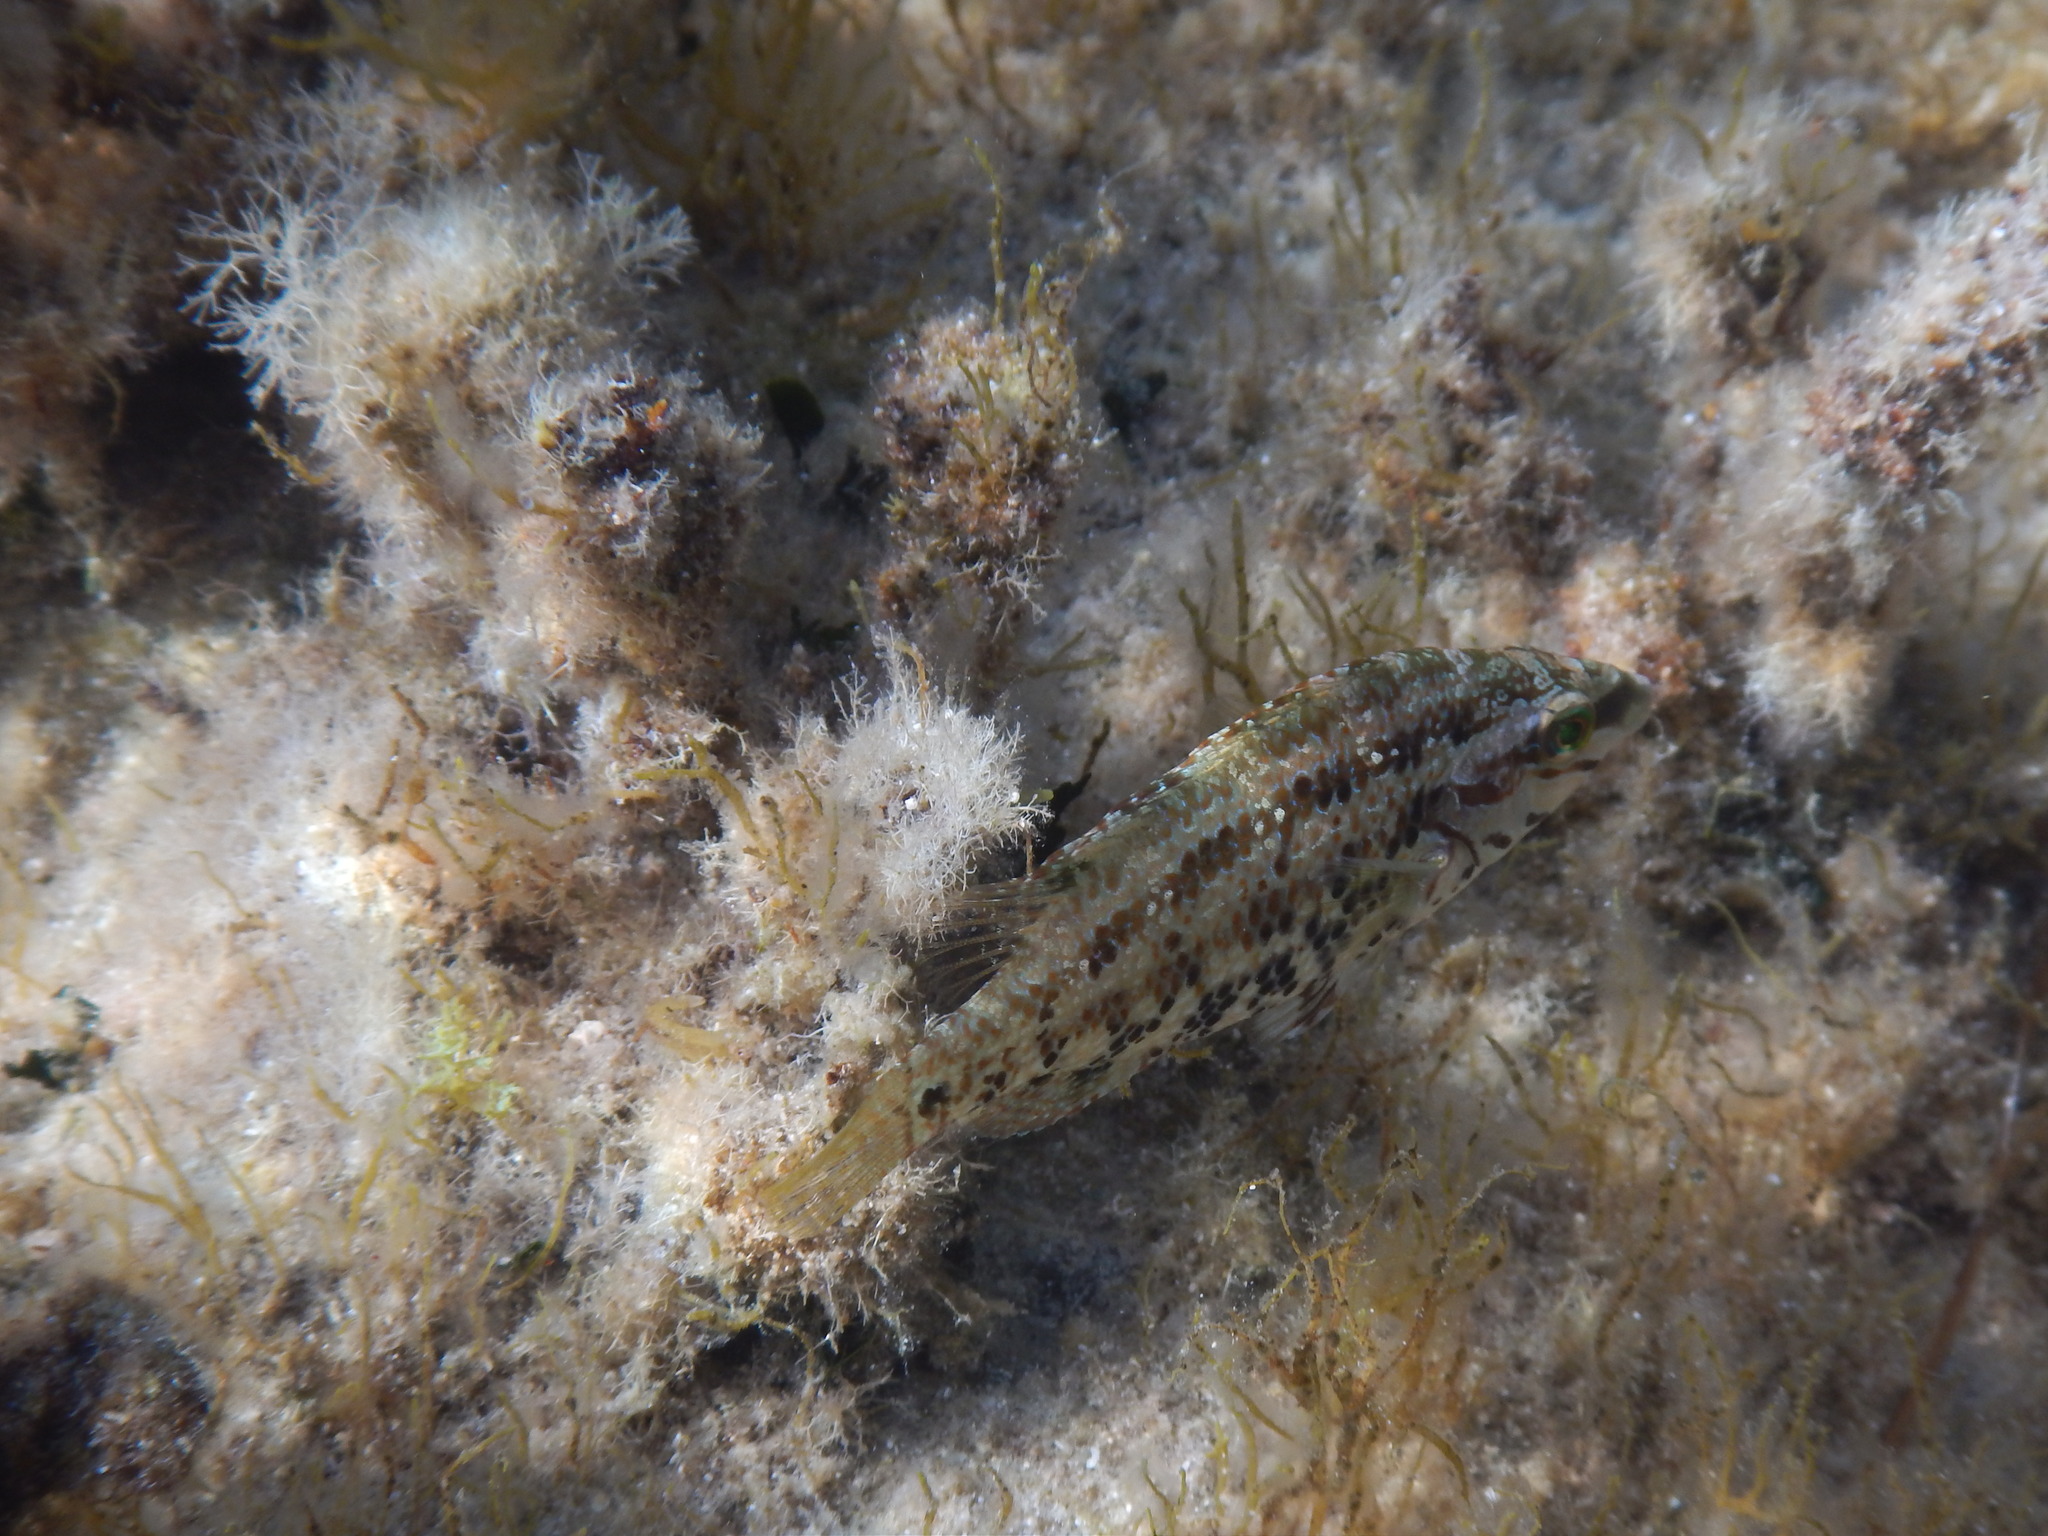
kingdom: Animalia
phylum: Chordata
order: Perciformes
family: Labridae
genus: Symphodus
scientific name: Symphodus roissali
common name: Five-spotted wrasse
